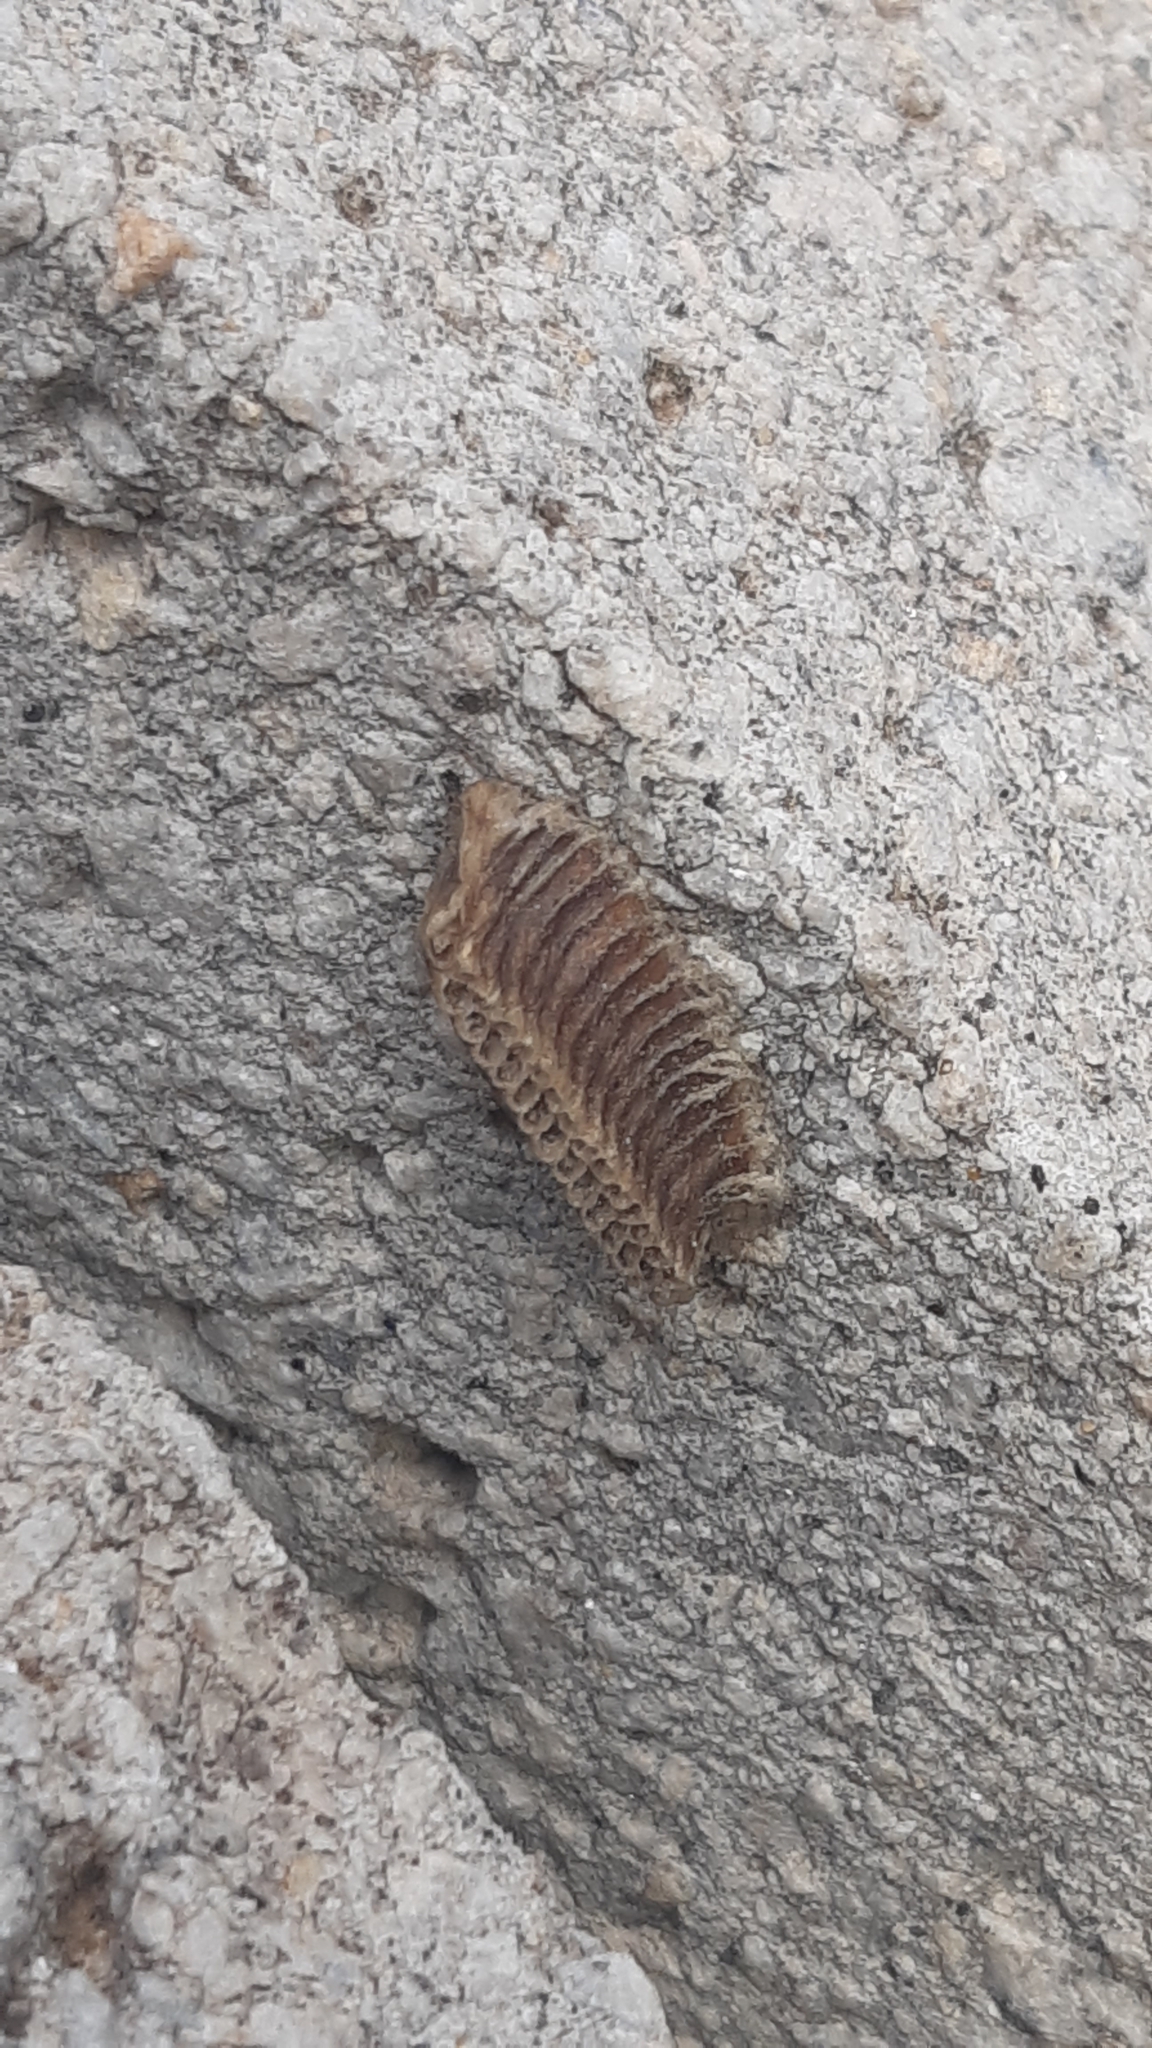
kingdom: Animalia
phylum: Arthropoda
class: Insecta
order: Mantodea
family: Eremiaphilidae
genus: Iris
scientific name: Iris oratoria
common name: Mediterranean mantis
